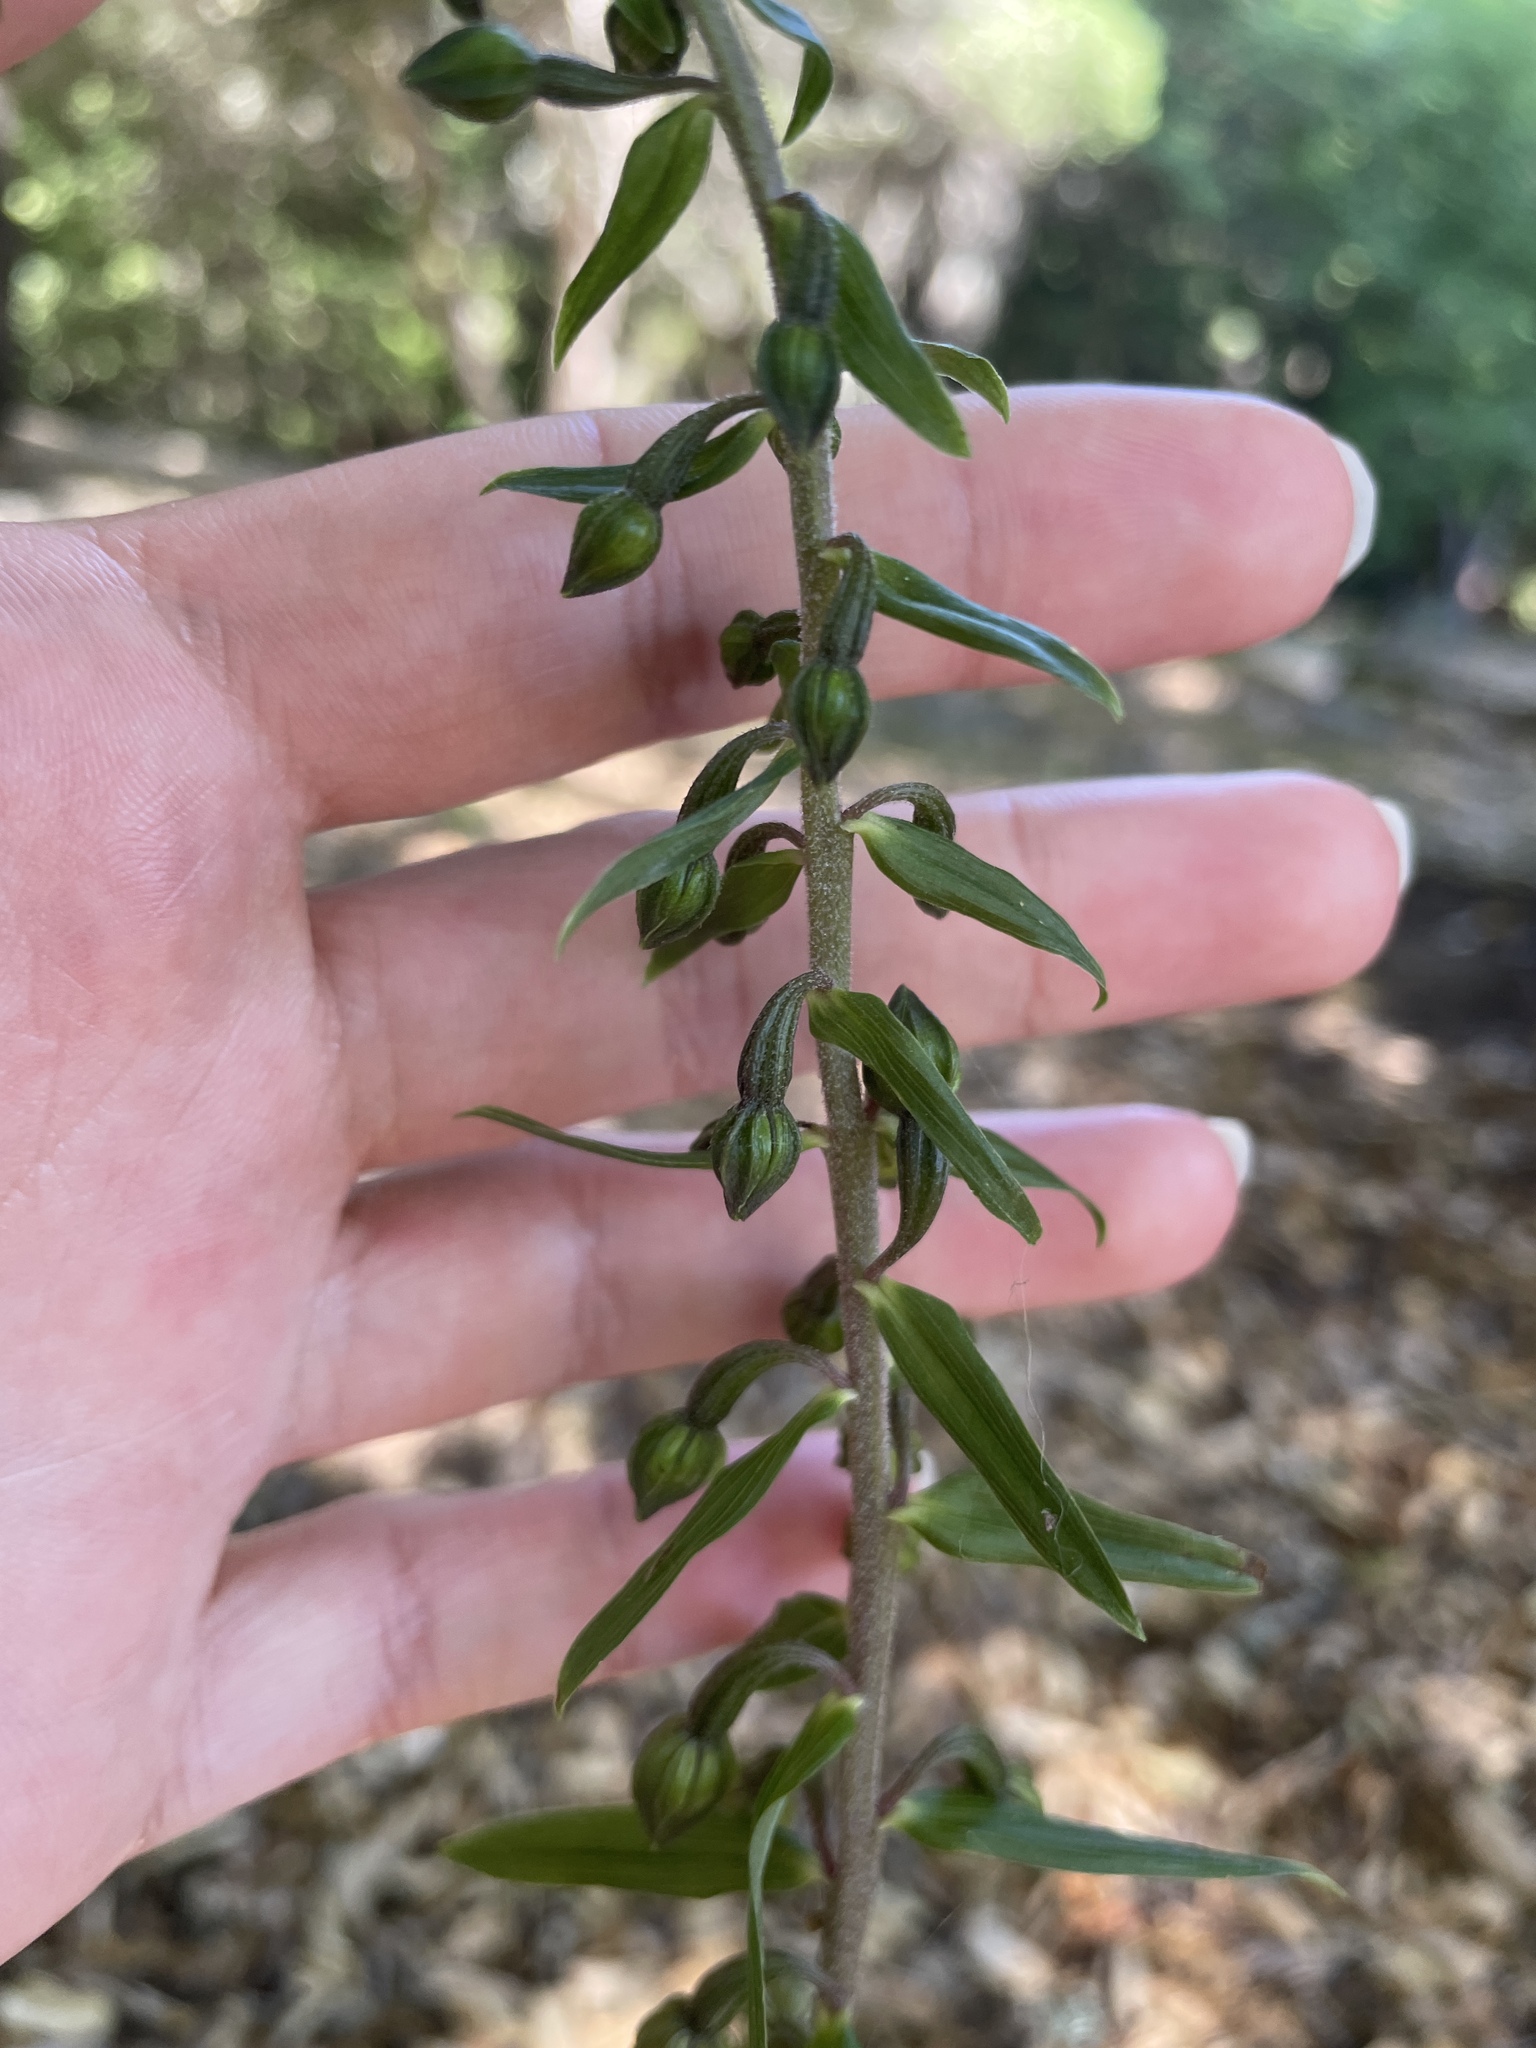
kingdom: Plantae
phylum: Tracheophyta
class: Liliopsida
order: Asparagales
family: Orchidaceae
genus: Epipactis
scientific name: Epipactis helleborine
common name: Broad-leaved helleborine
